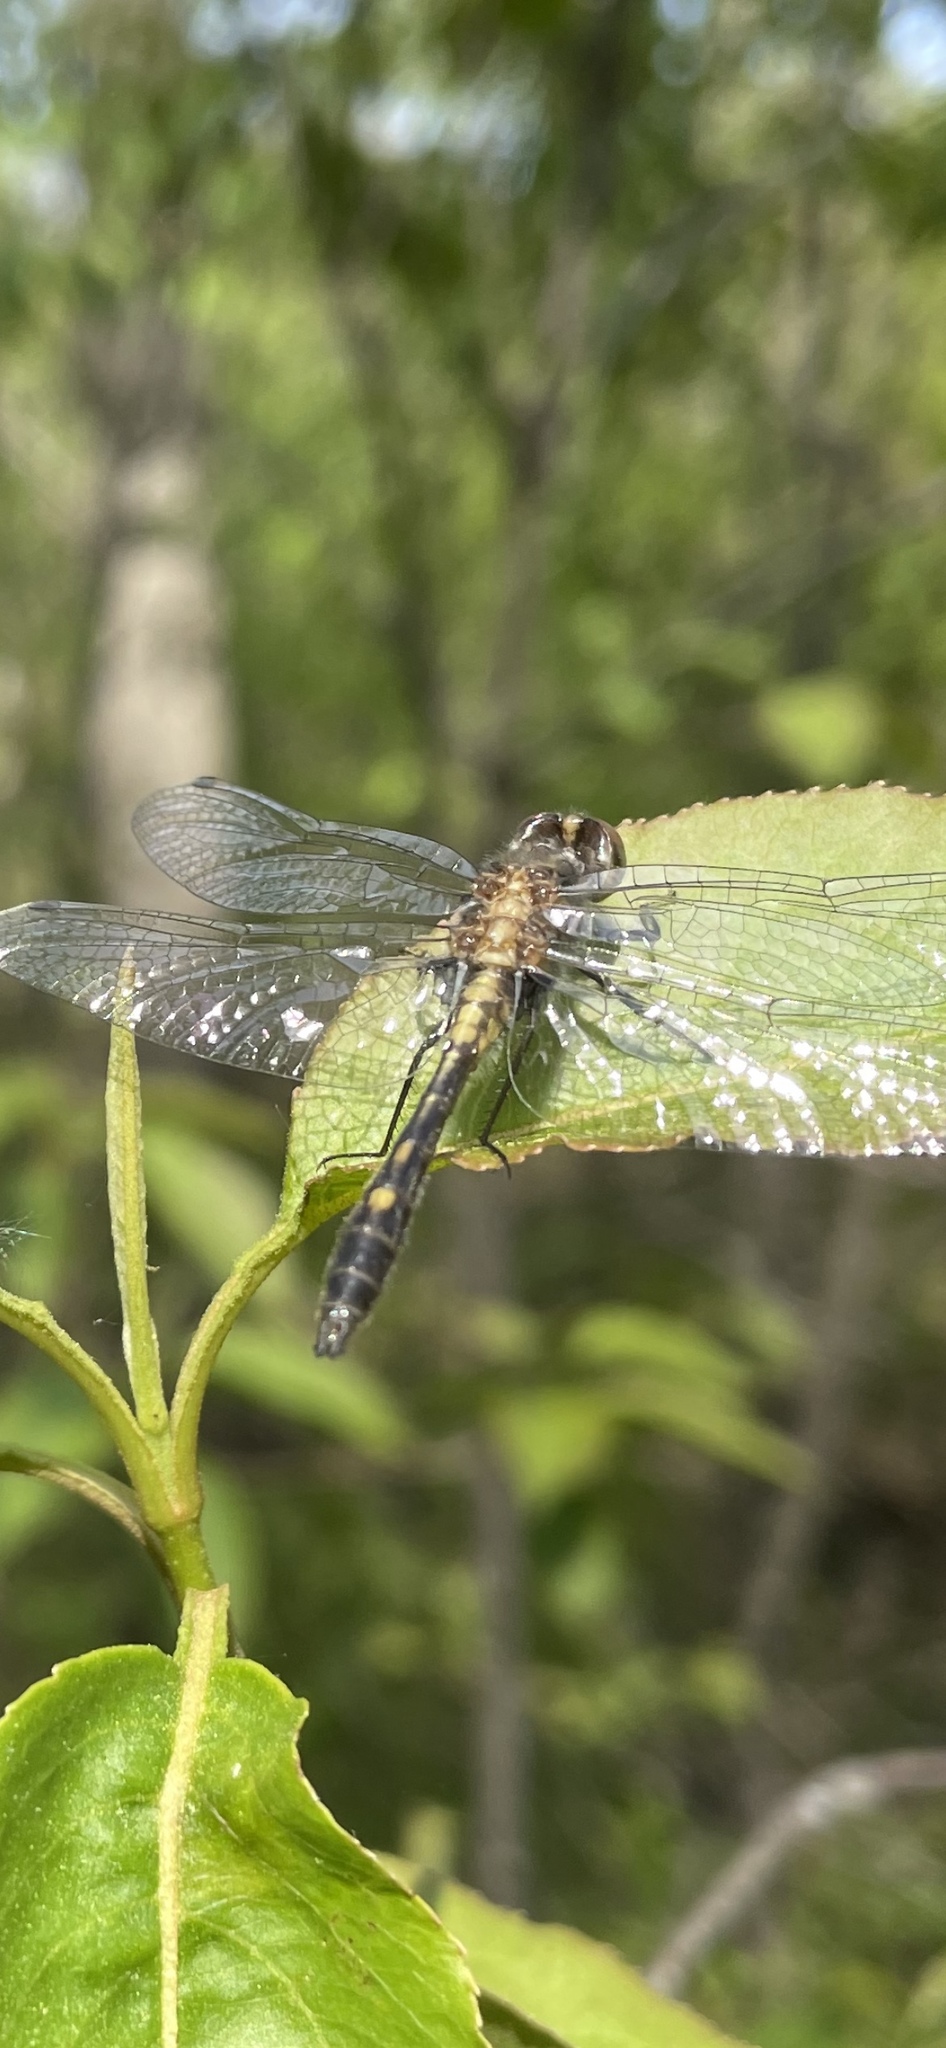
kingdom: Animalia
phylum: Arthropoda
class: Insecta
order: Odonata
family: Libellulidae
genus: Leucorrhinia
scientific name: Leucorrhinia intacta
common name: Dot-tailed whiteface
